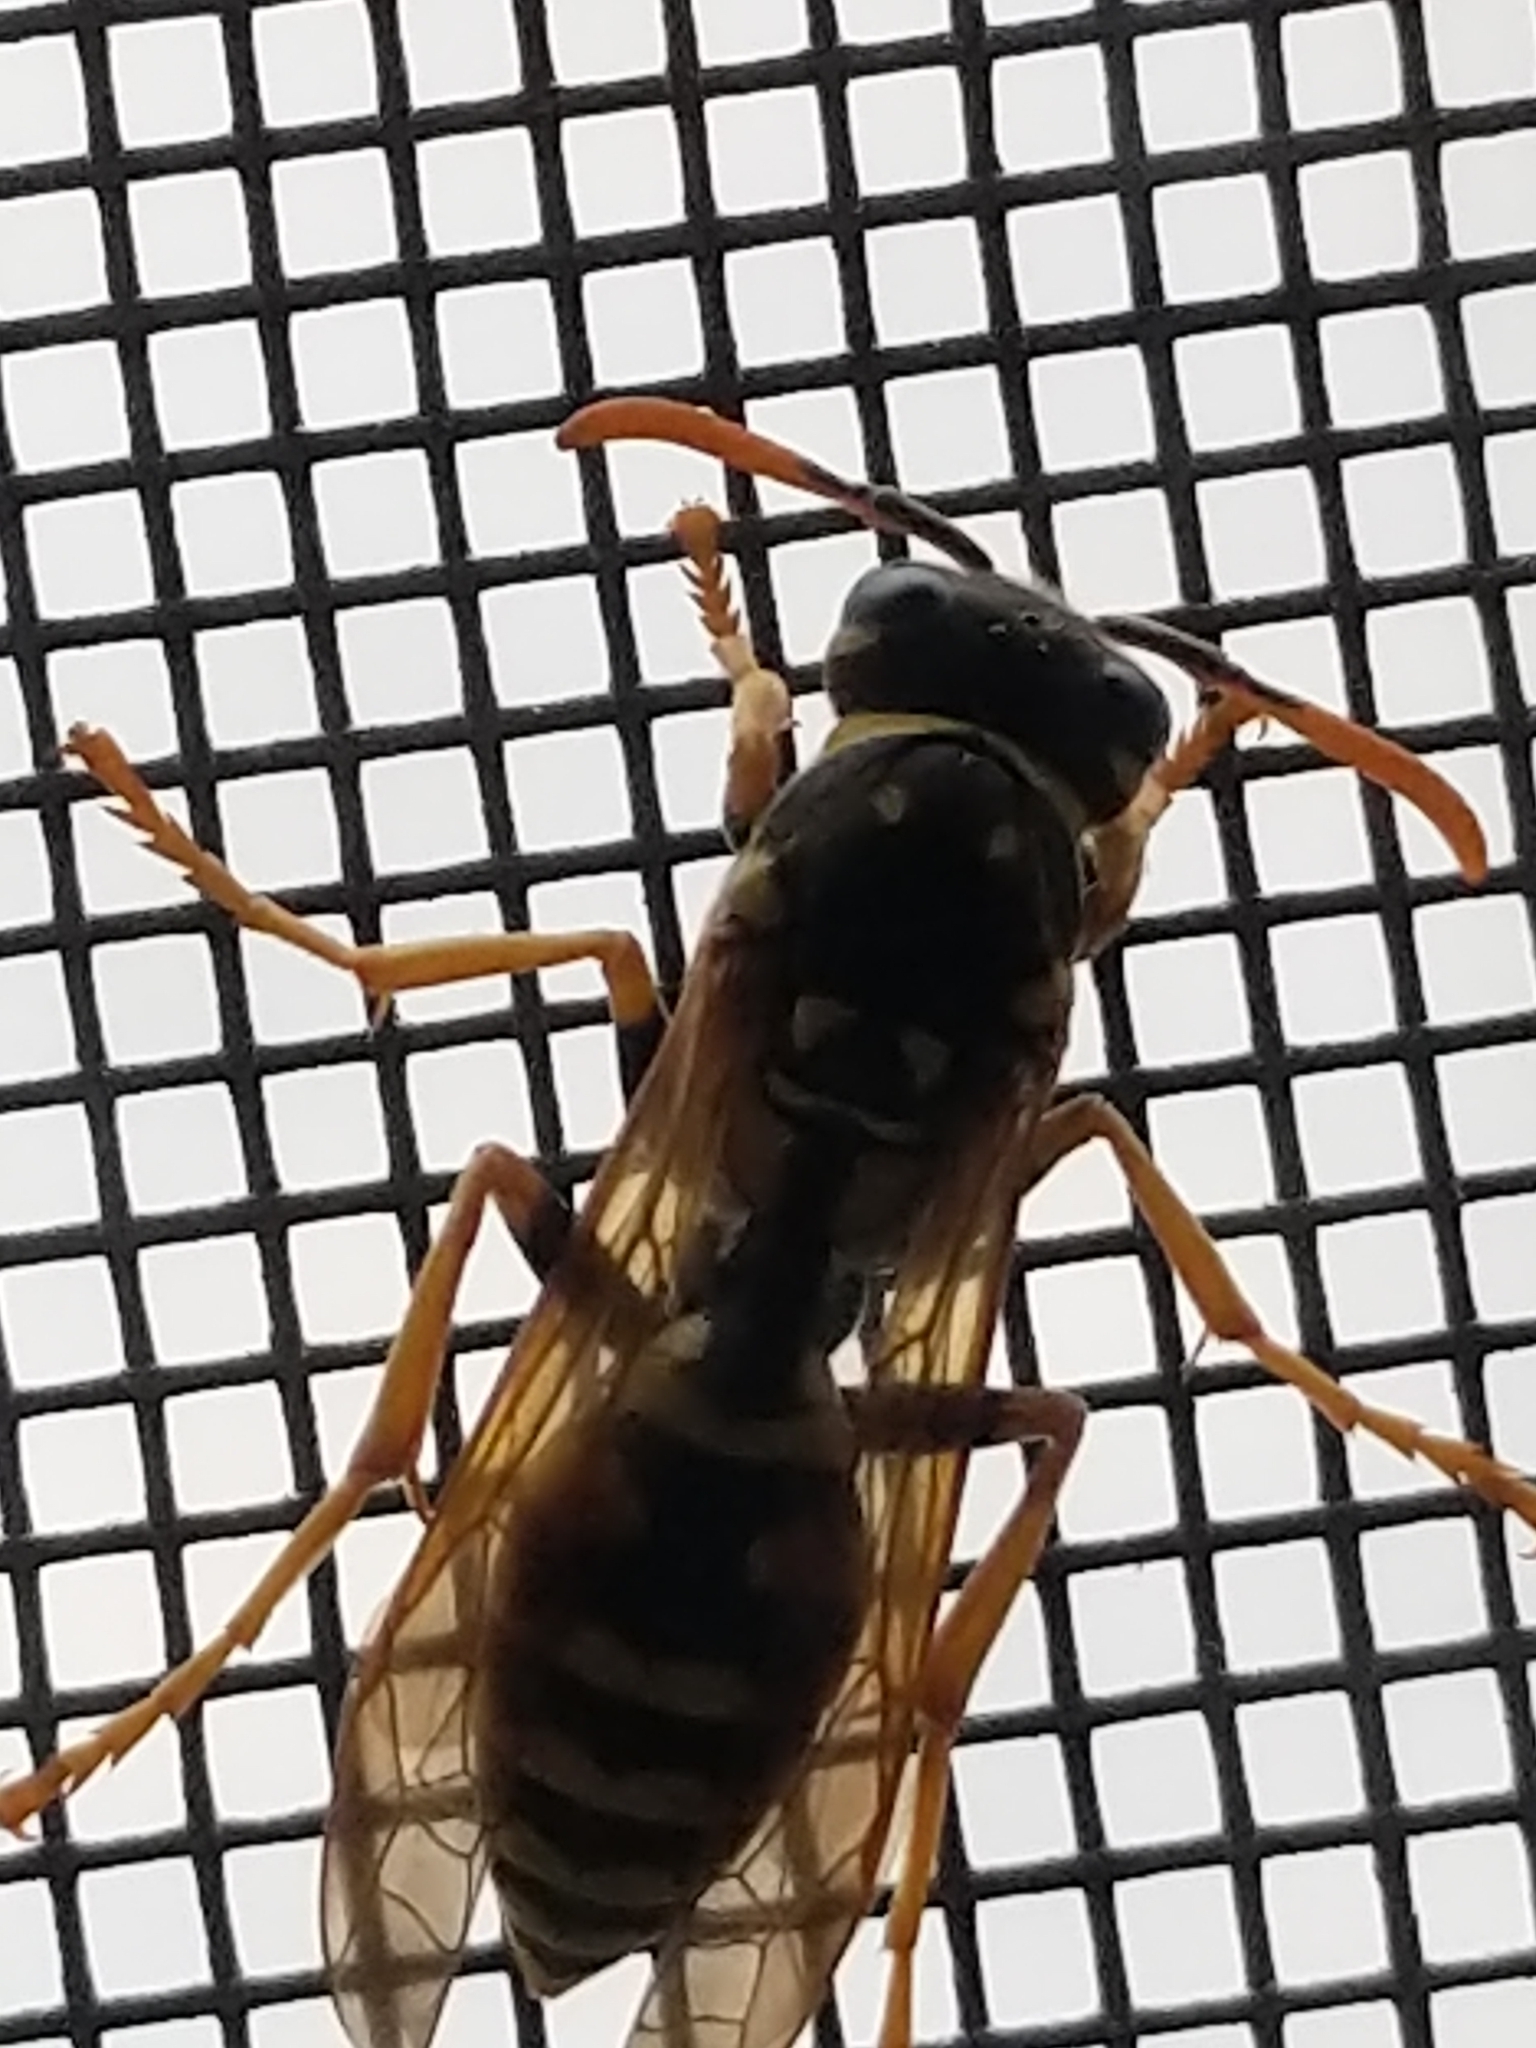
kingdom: Animalia
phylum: Arthropoda
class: Insecta
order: Hymenoptera
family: Eumenidae
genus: Polistes
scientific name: Polistes dominula
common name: Paper wasp
